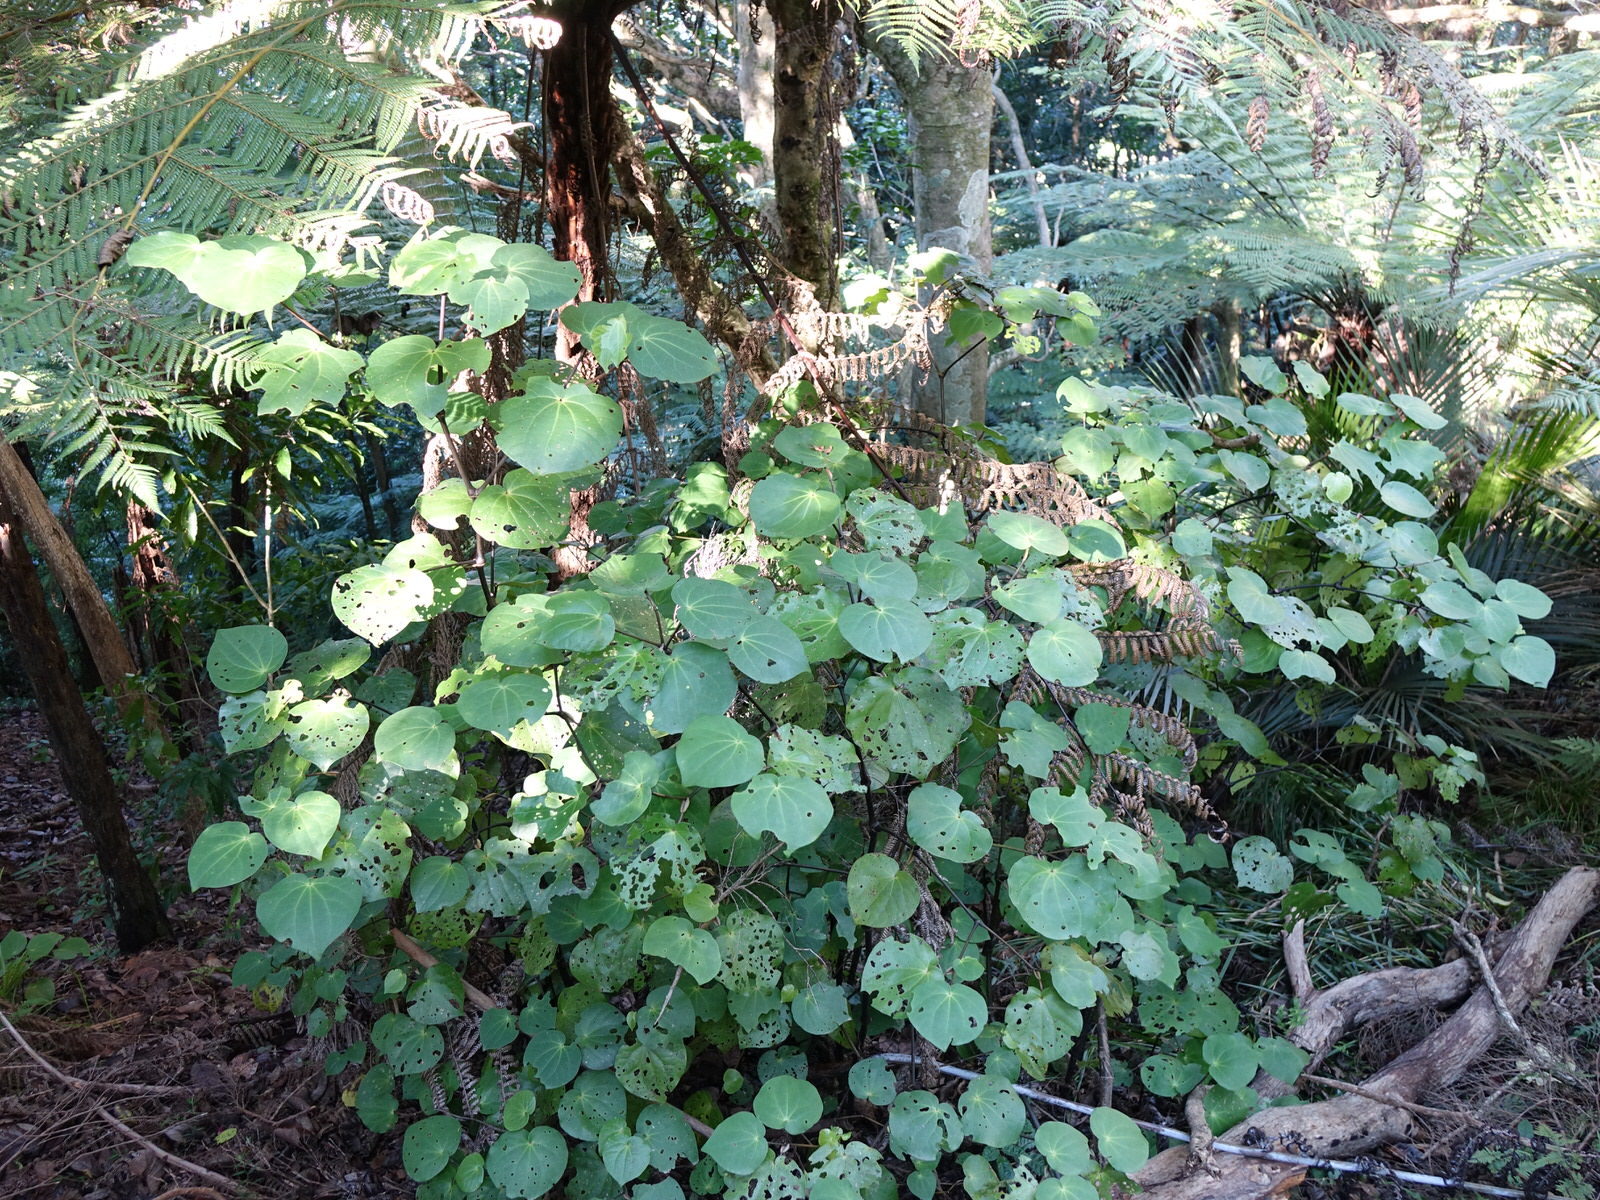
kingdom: Plantae
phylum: Tracheophyta
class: Magnoliopsida
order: Piperales
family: Piperaceae
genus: Macropiper
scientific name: Macropiper excelsum
